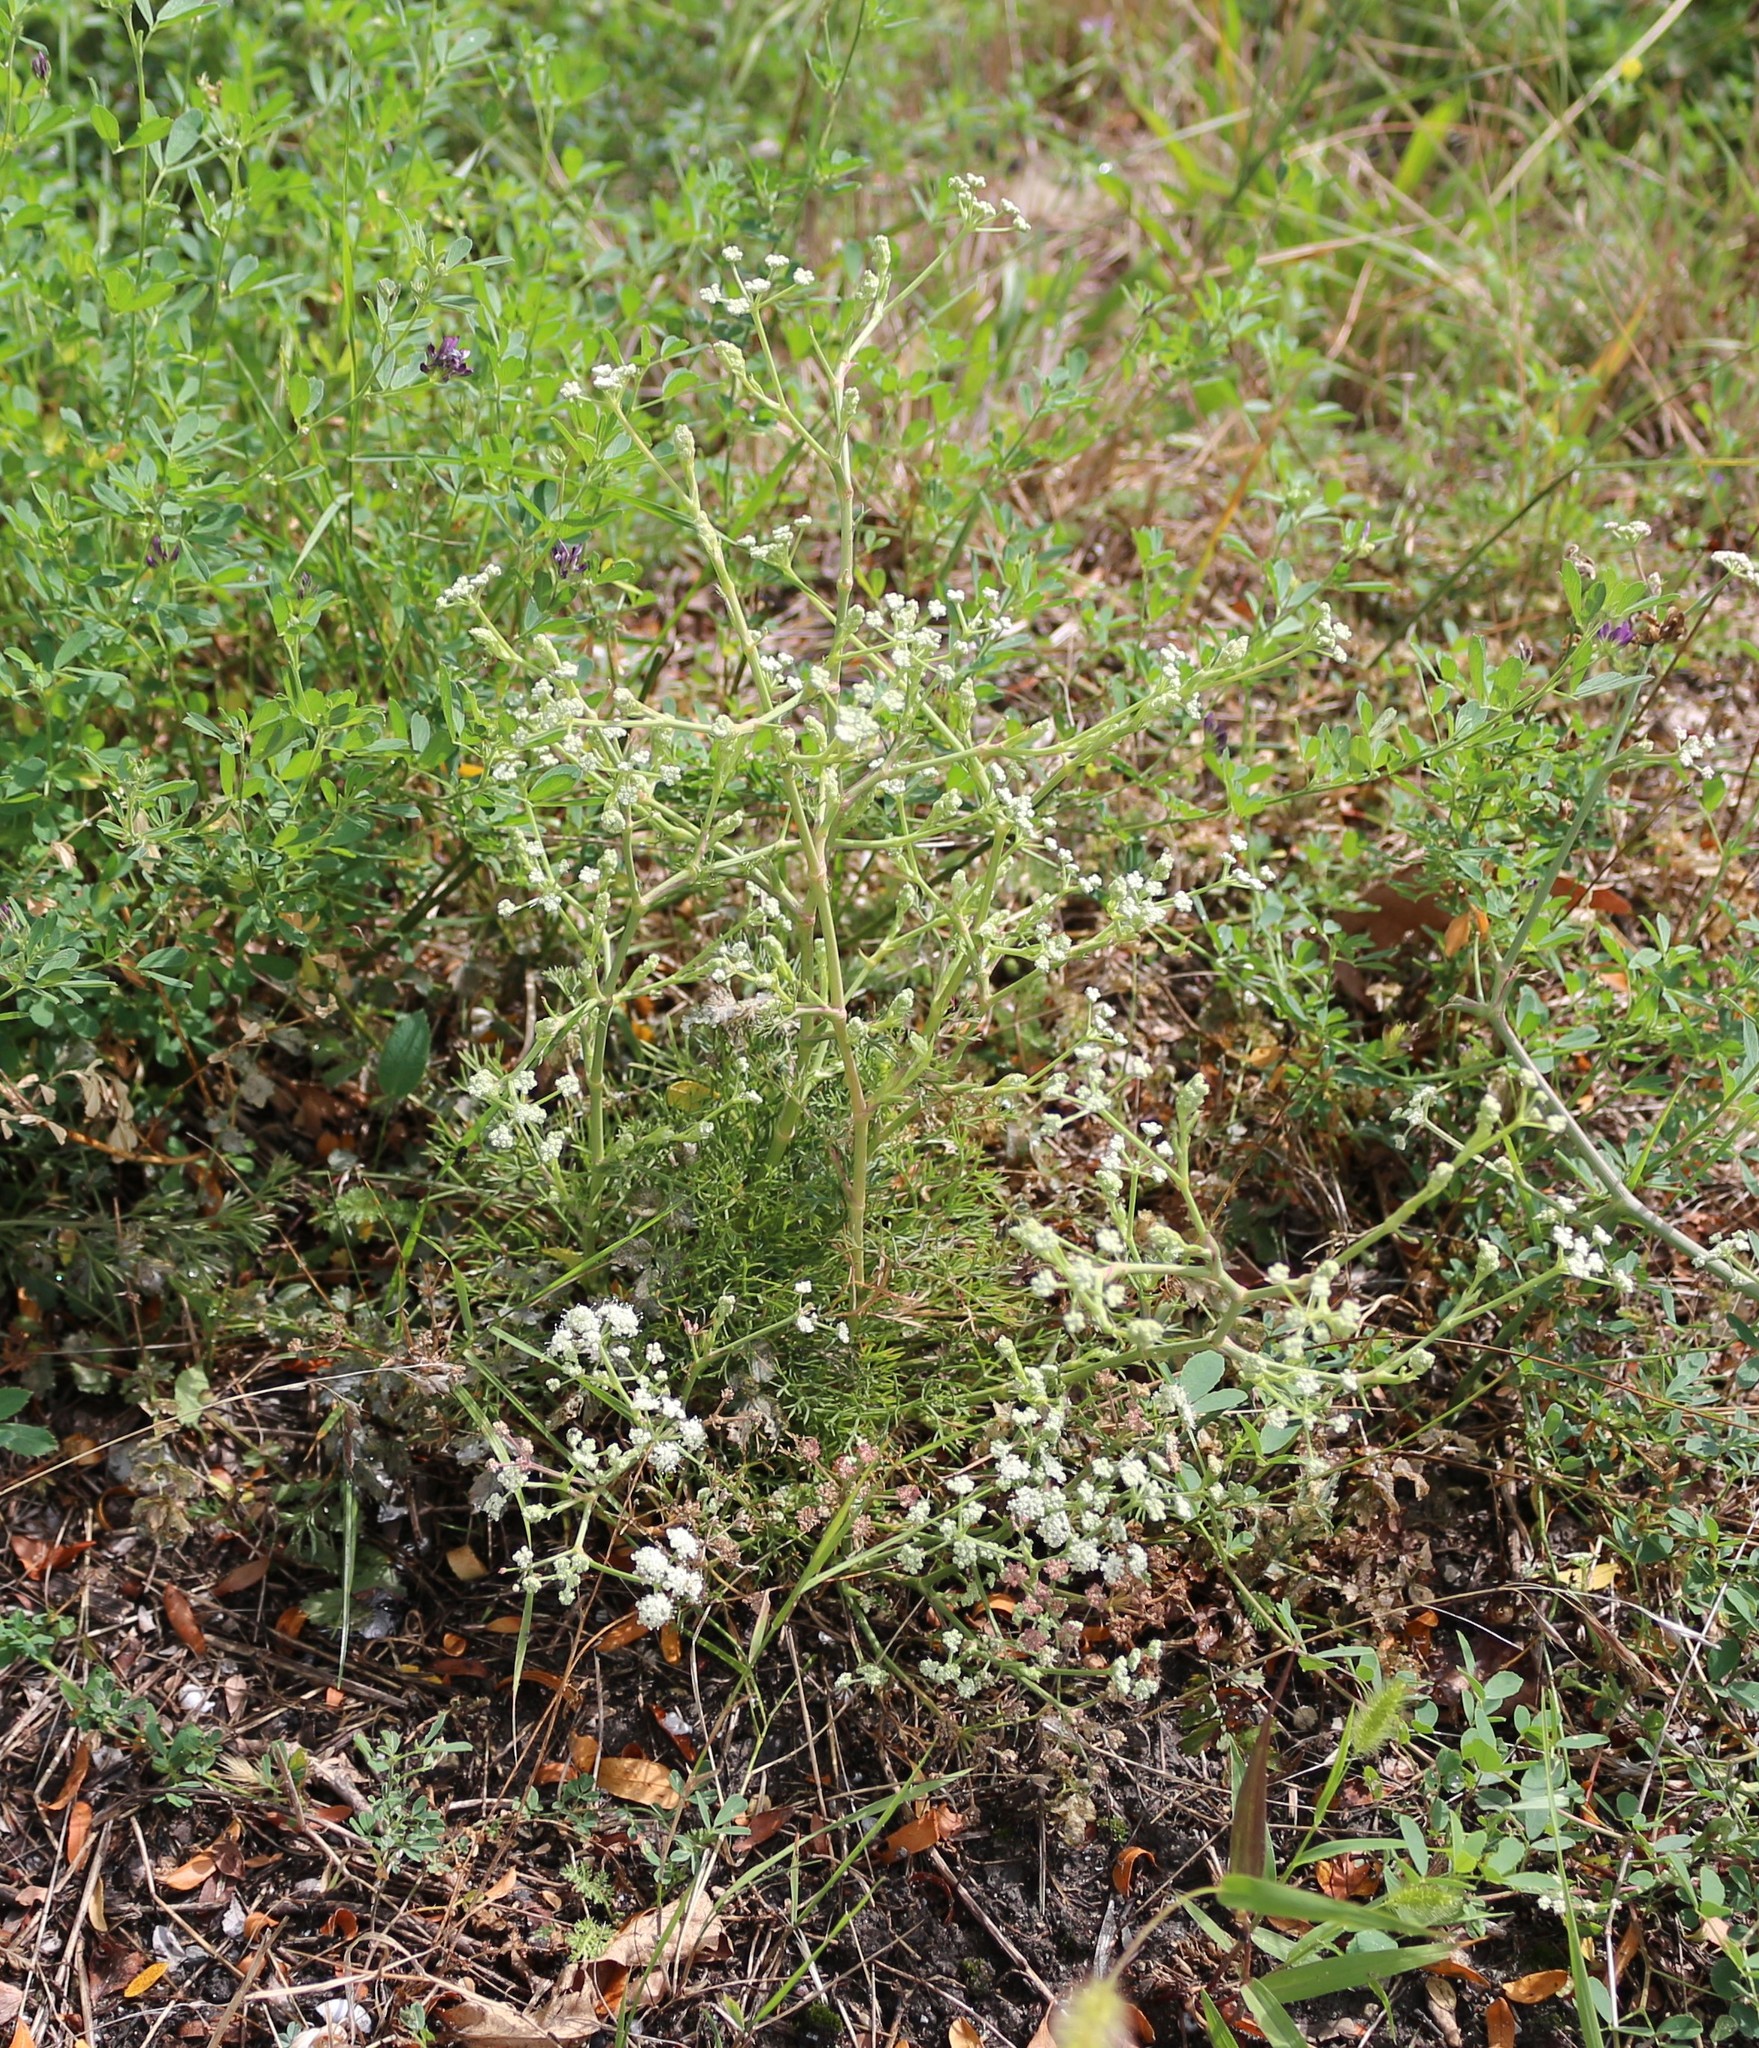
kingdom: Plantae
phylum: Tracheophyta
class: Magnoliopsida
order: Apiales
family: Apiaceae
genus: Seseli
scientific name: Seseli arenarium
